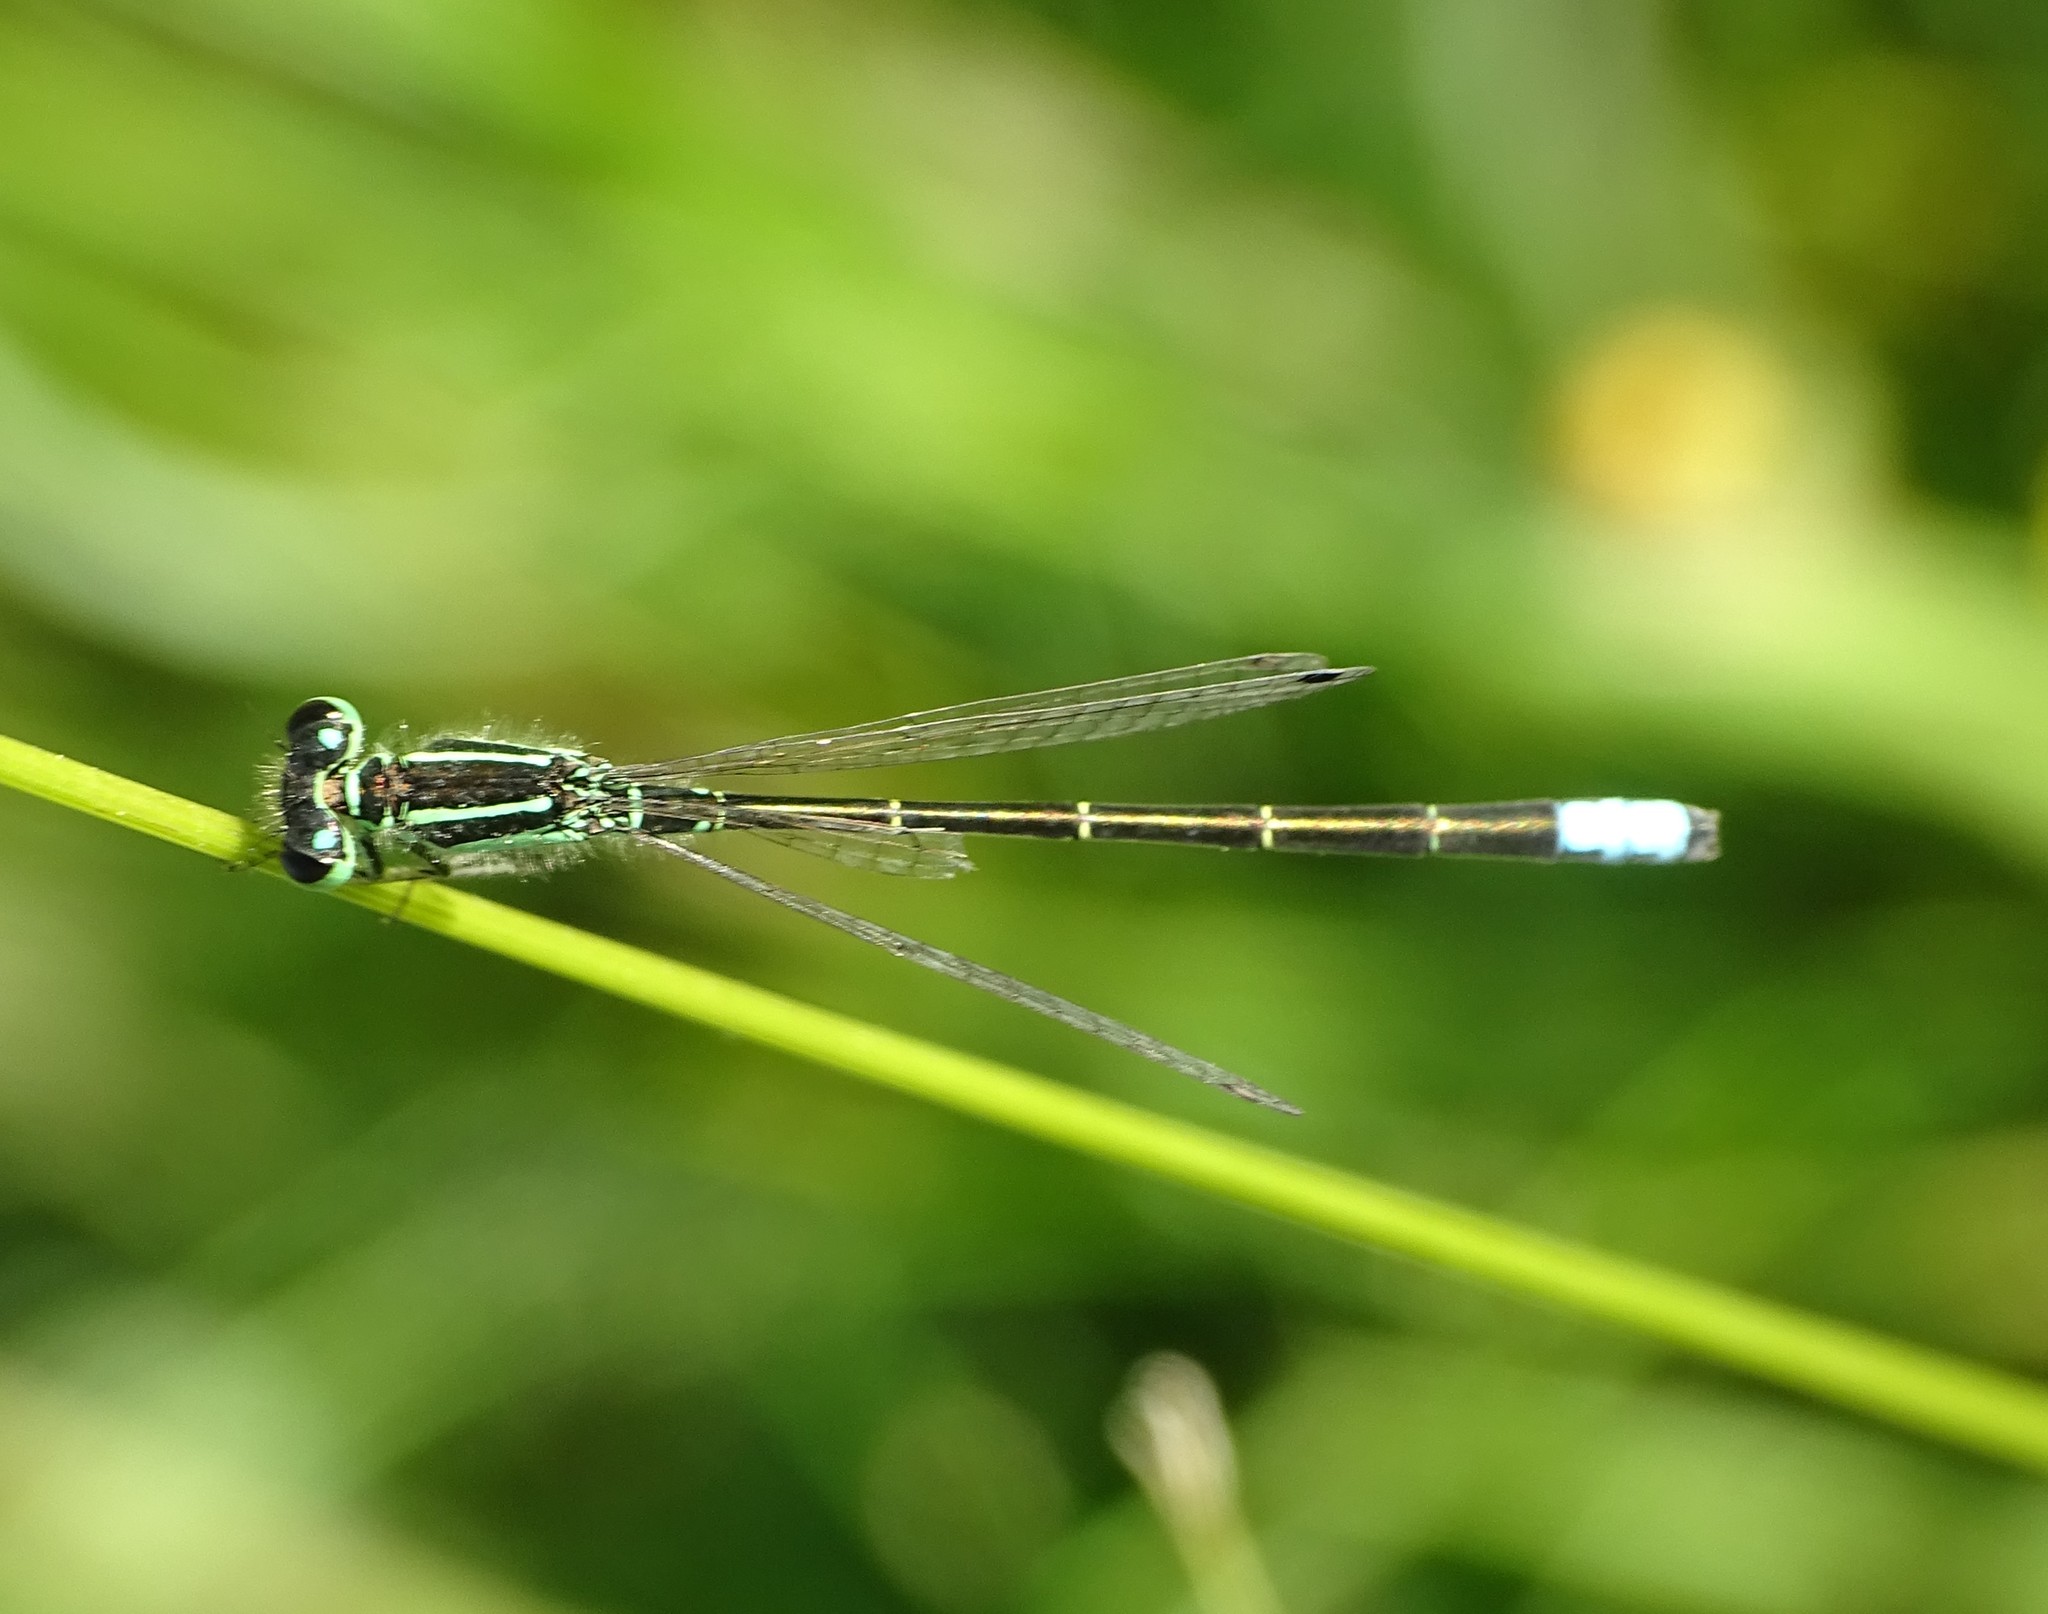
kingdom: Animalia
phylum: Arthropoda
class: Insecta
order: Odonata
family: Coenagrionidae
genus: Ischnura
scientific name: Ischnura verticalis
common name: Eastern forktail
